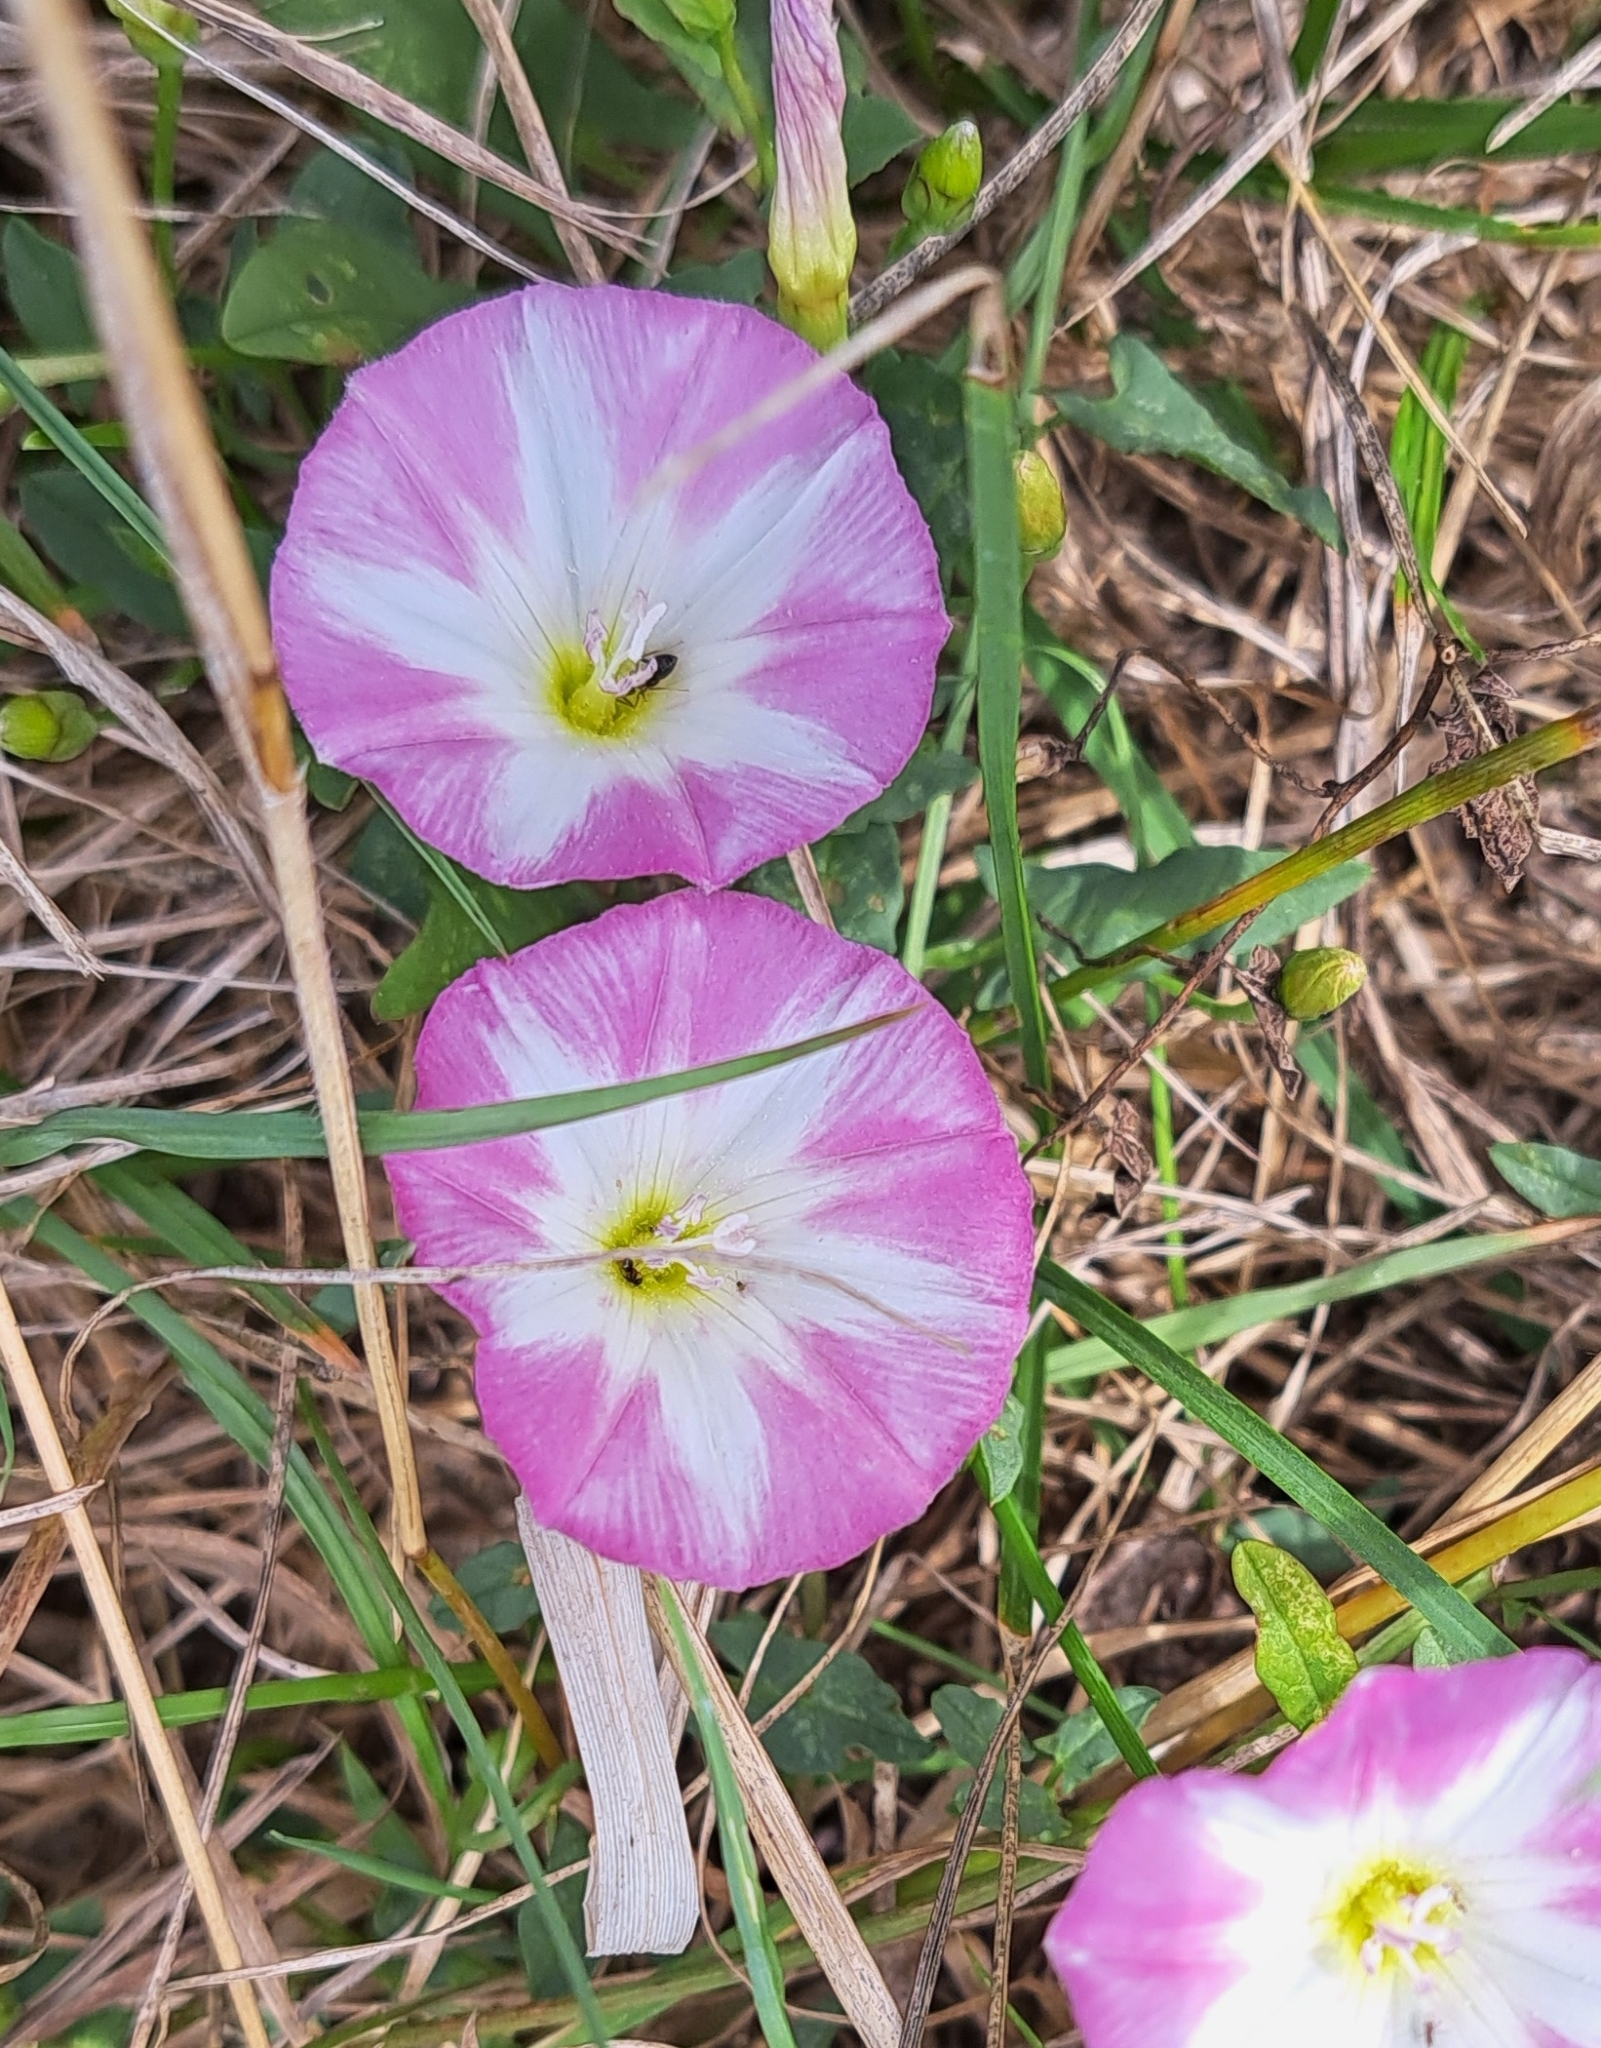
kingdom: Plantae
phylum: Tracheophyta
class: Magnoliopsida
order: Solanales
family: Convolvulaceae
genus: Convolvulus
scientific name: Convolvulus arvensis
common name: Field bindweed
